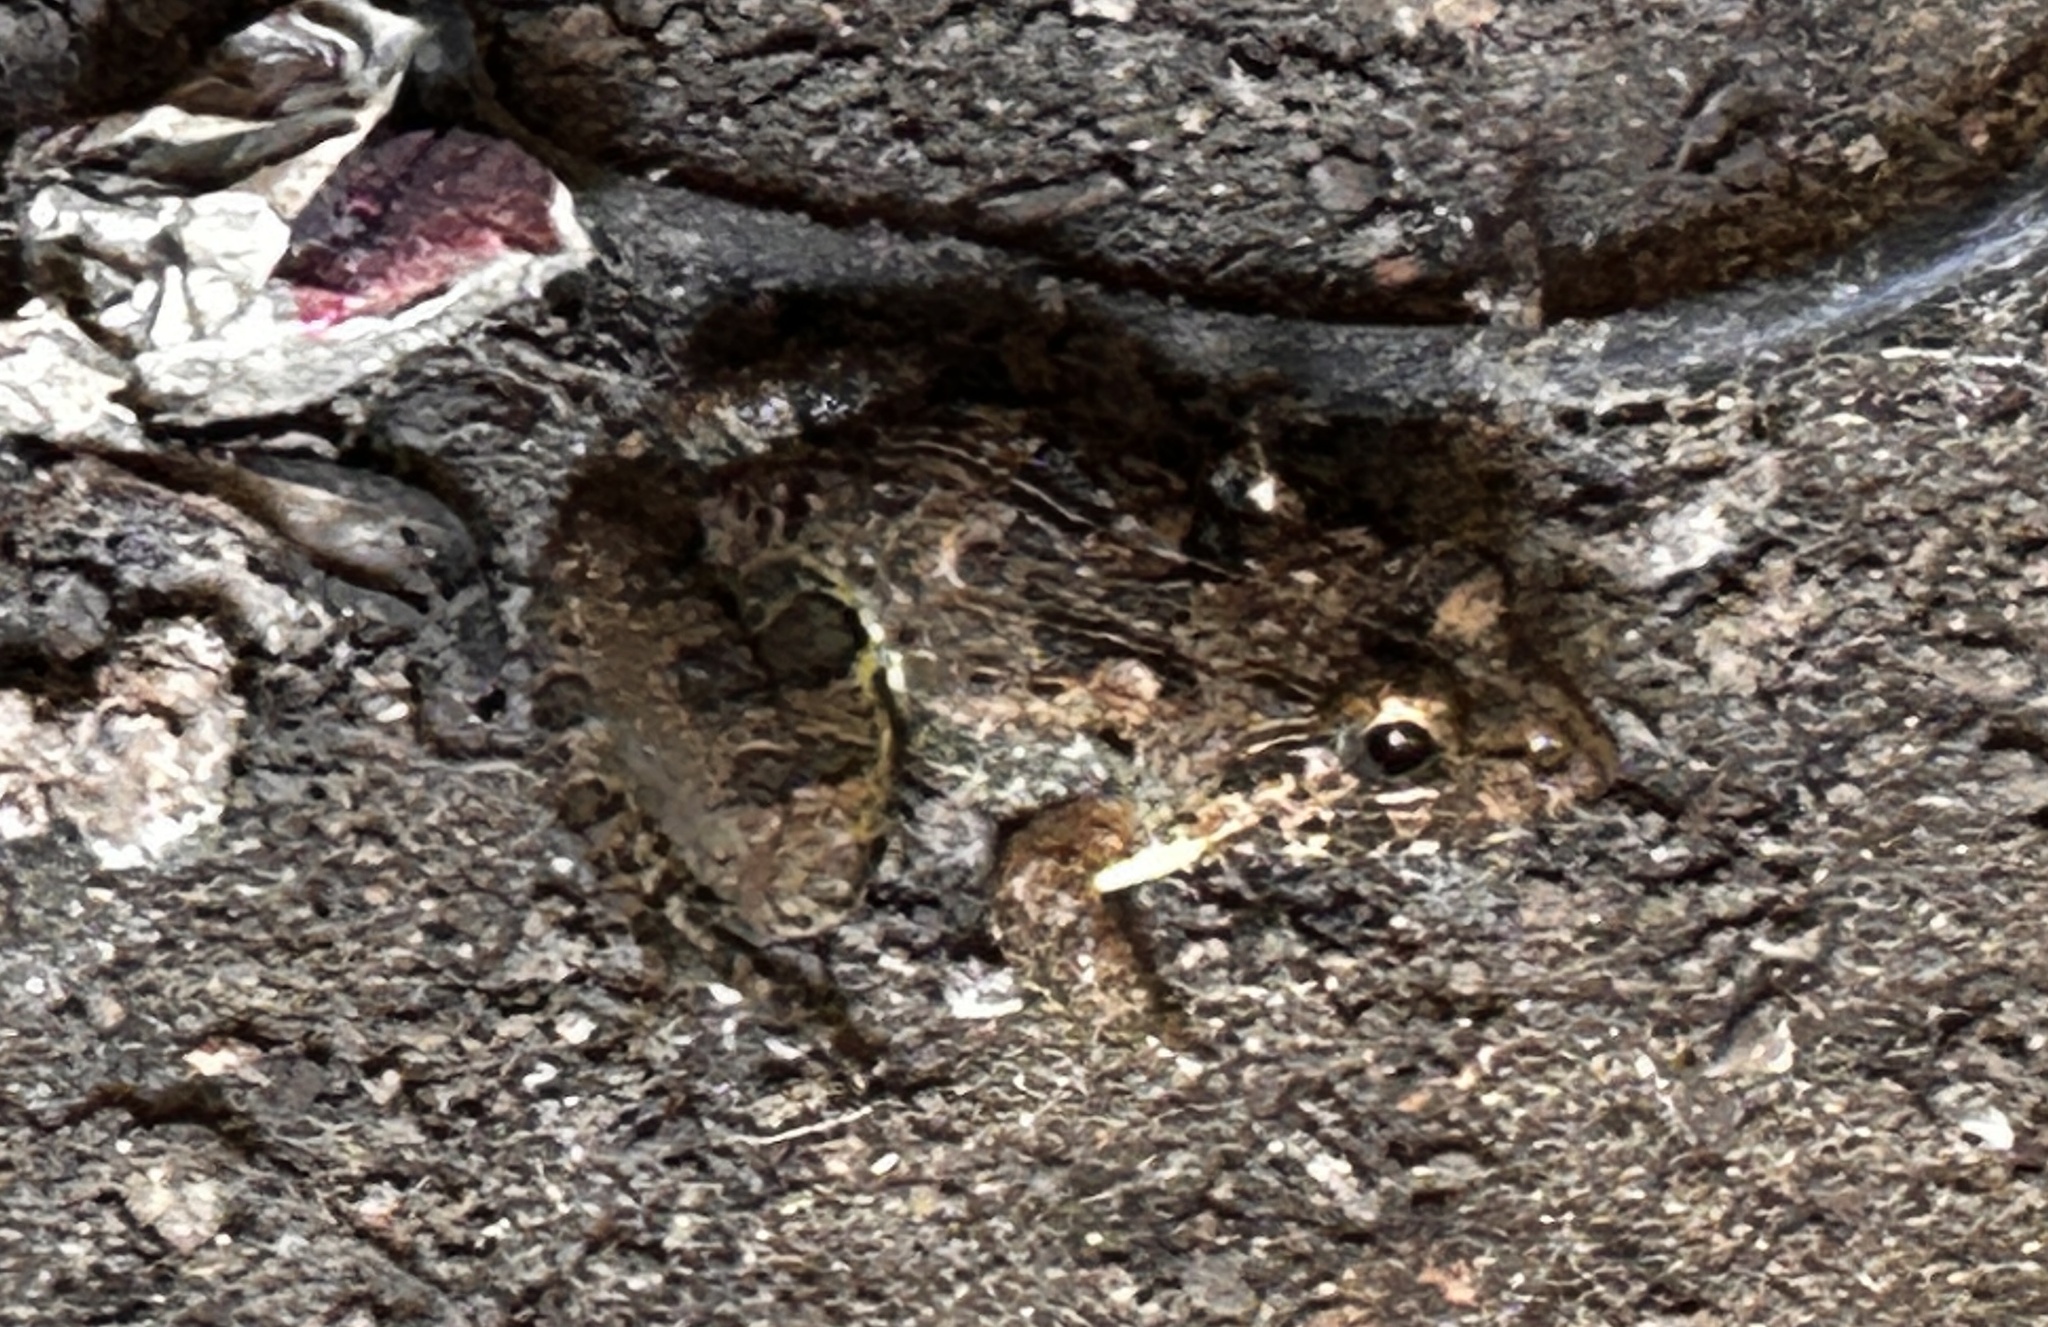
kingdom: Animalia
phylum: Chordata
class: Amphibia
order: Anura
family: Dicroglossidae
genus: Fejervarya
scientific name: Fejervarya limnocharis
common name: Asian grass frog/common pond frog/field frog/grass frog/indian rice frog
